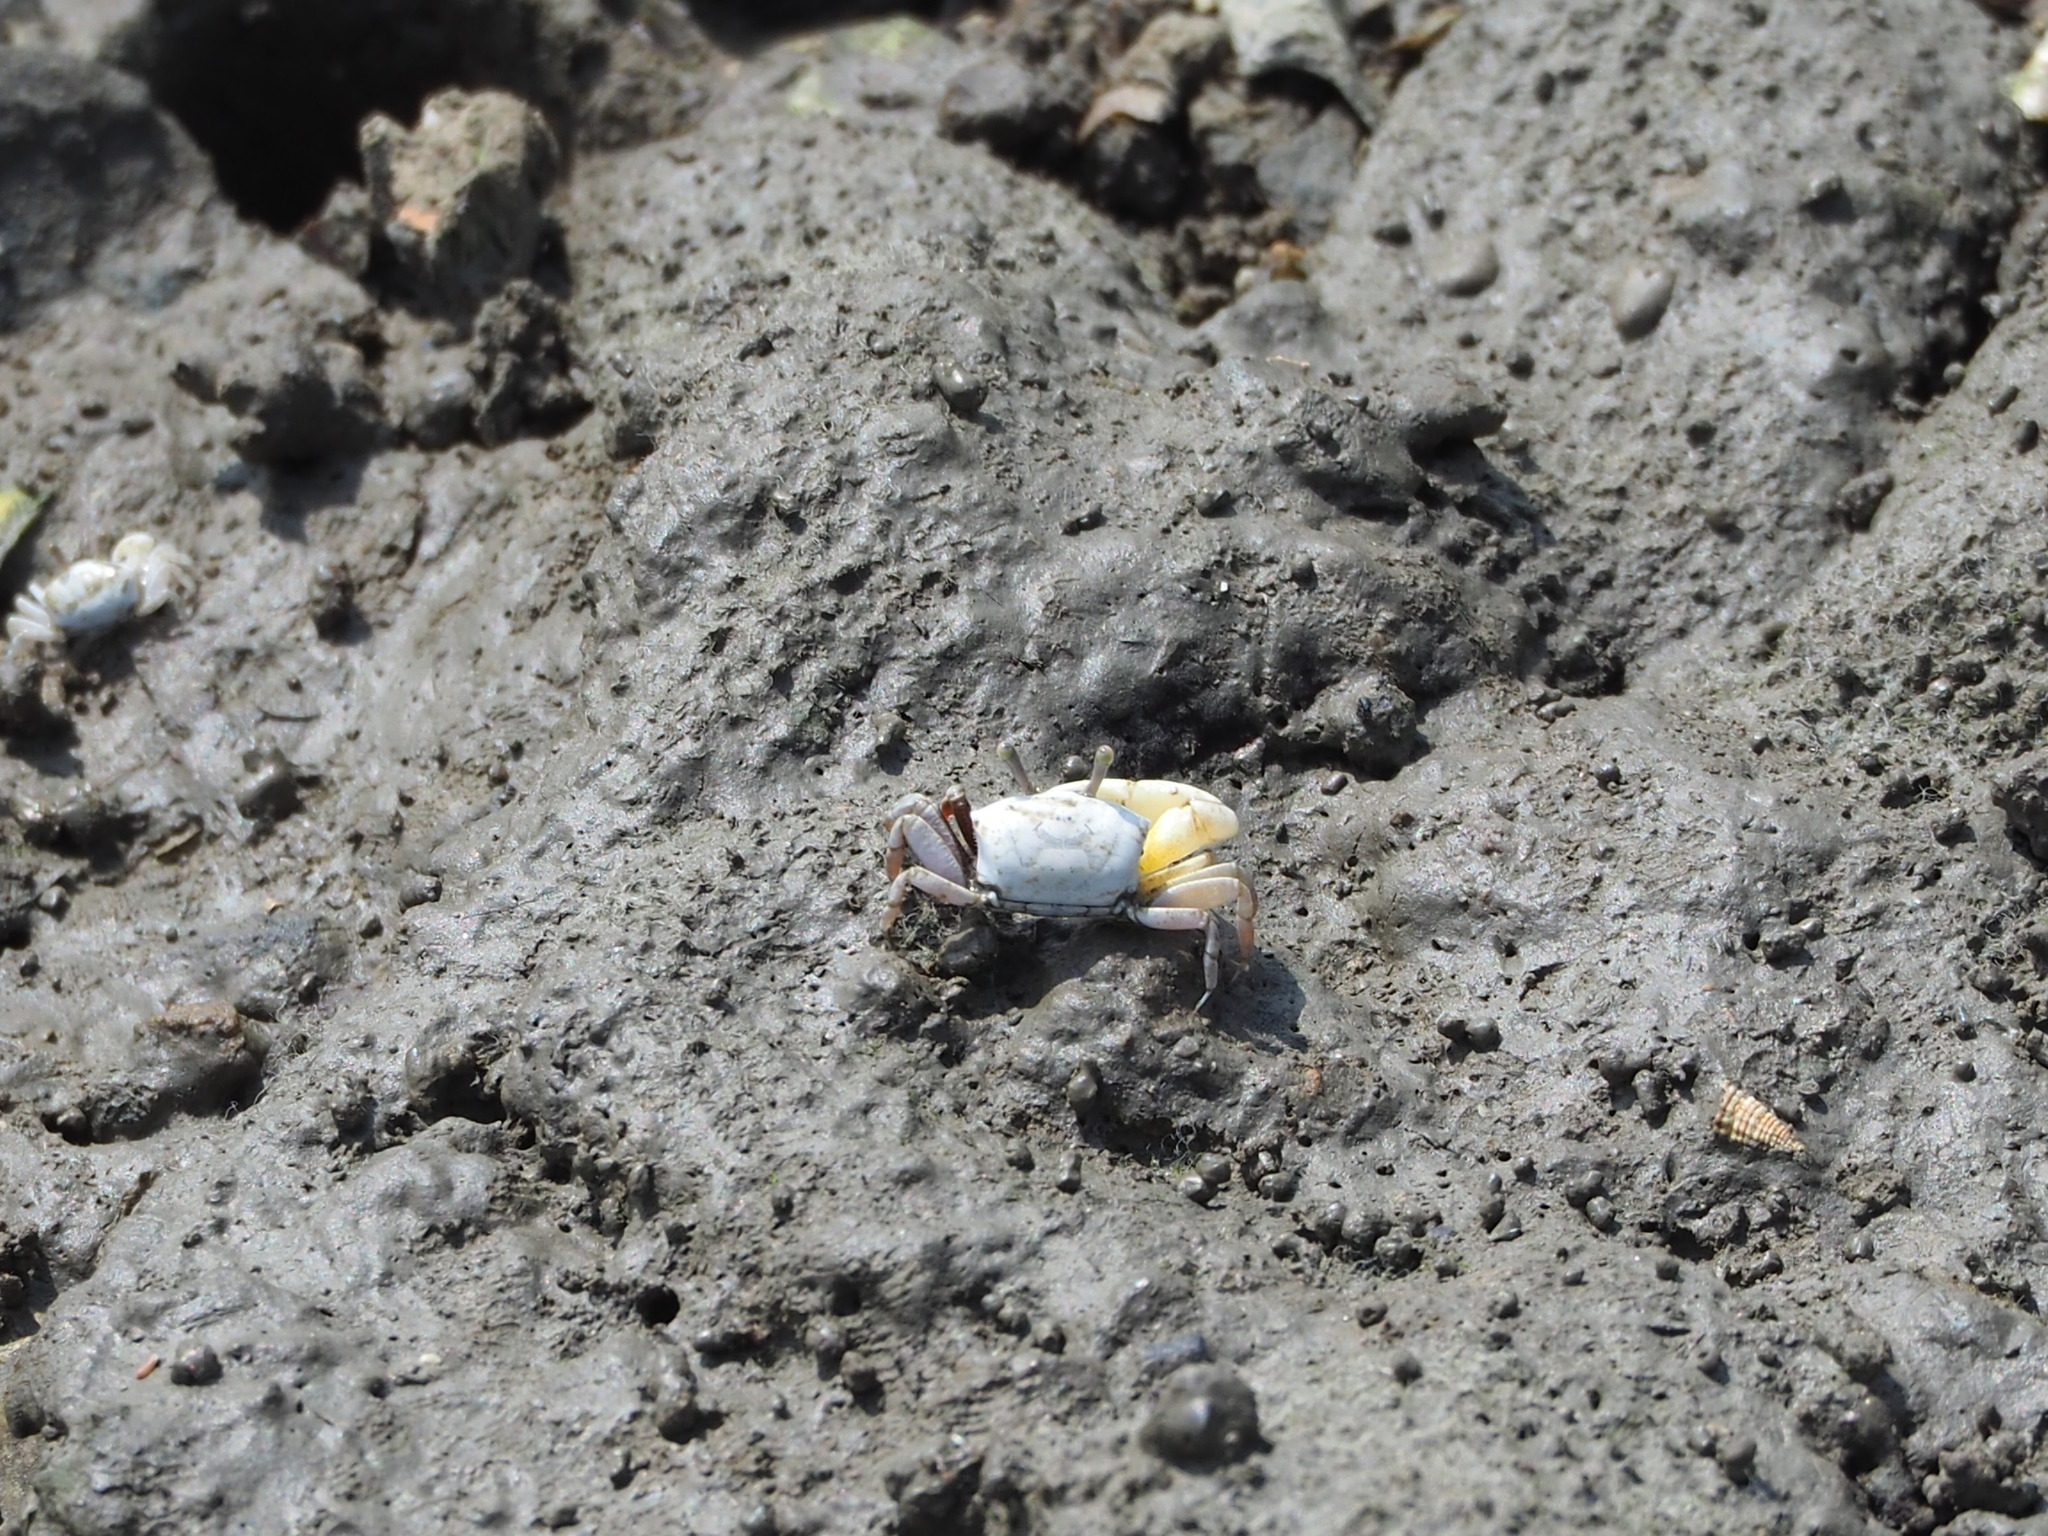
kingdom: Animalia
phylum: Arthropoda
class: Malacostraca
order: Decapoda
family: Ocypodidae
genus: Austruca
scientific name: Austruca lactea
